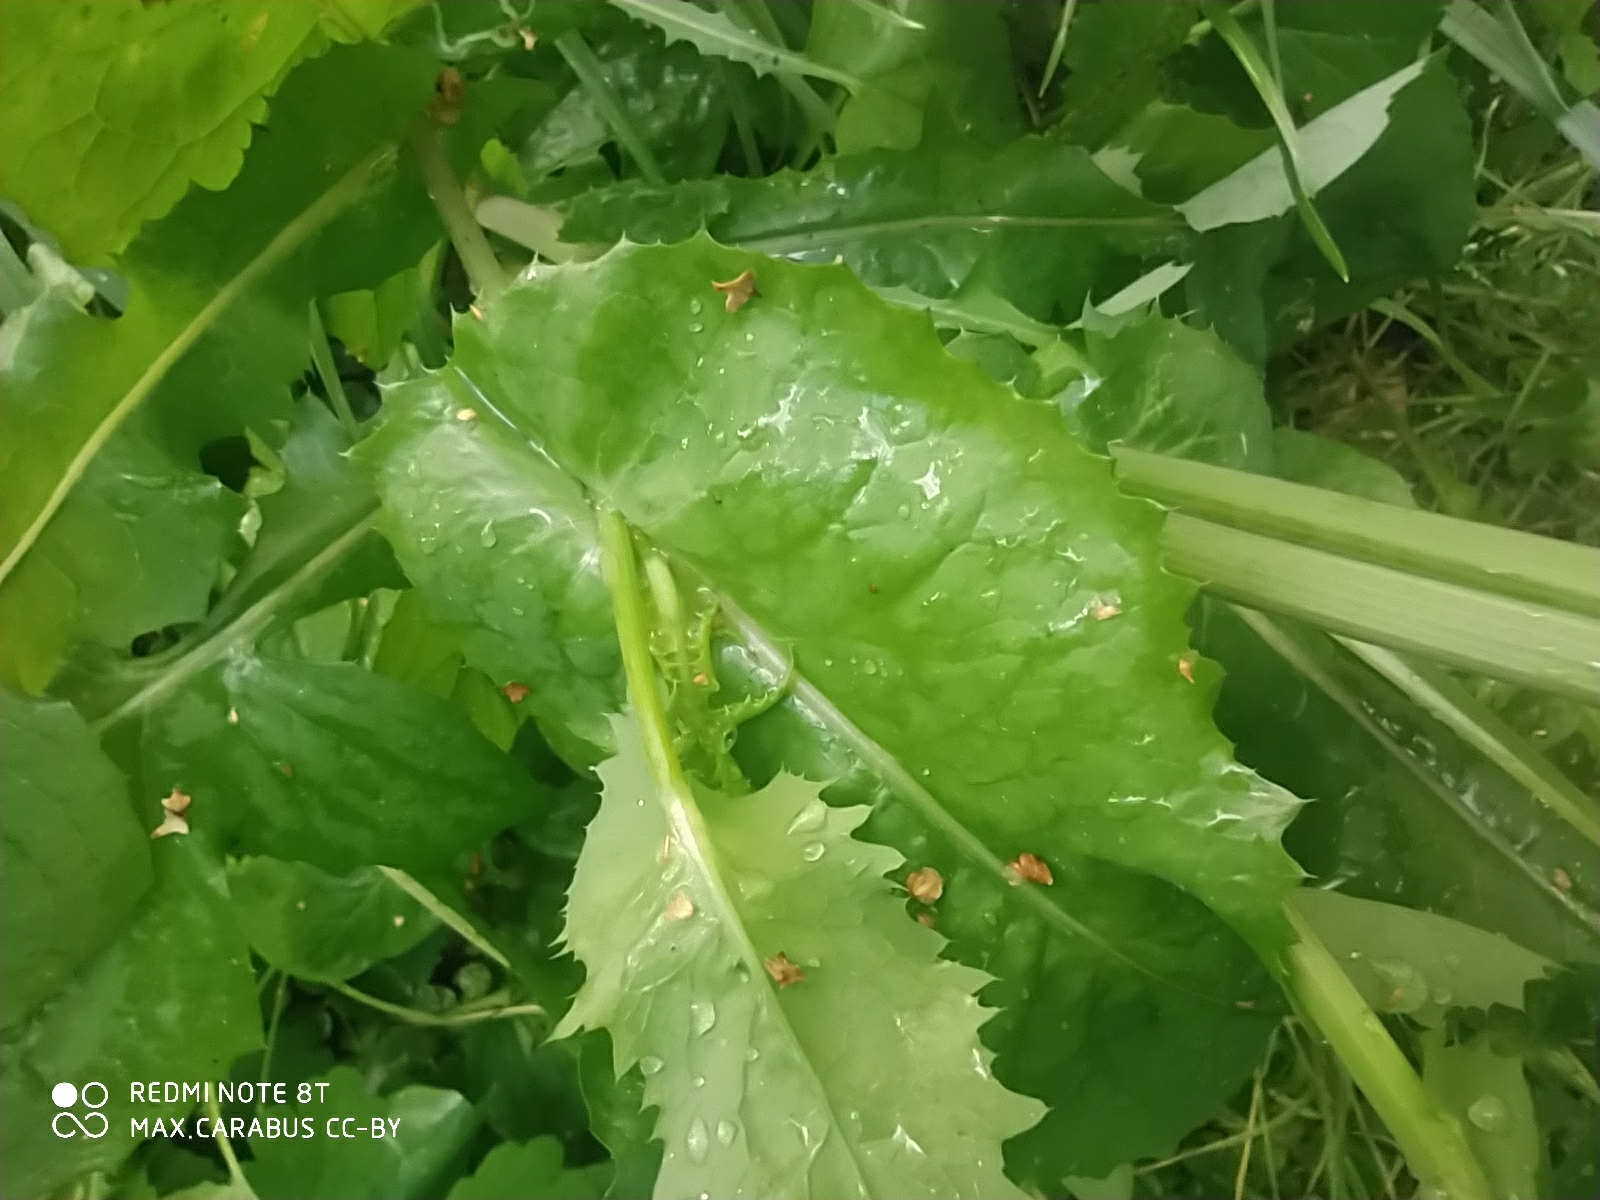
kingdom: Plantae
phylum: Tracheophyta
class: Magnoliopsida
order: Asterales
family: Asteraceae
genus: Sonchus
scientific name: Sonchus oleraceus
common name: Common sowthistle
